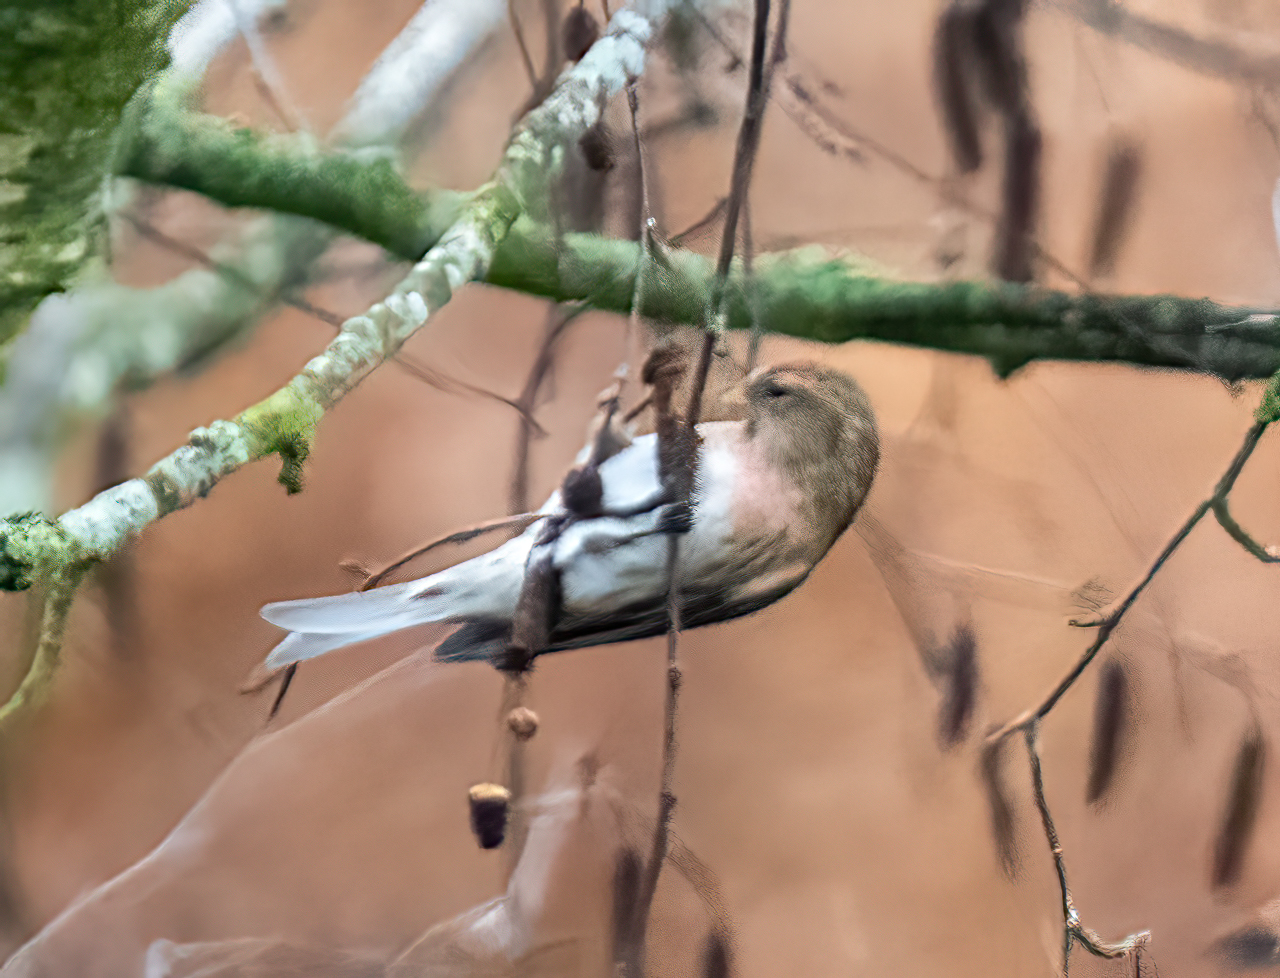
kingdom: Animalia
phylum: Chordata
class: Aves
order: Passeriformes
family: Fringillidae
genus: Acanthis
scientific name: Acanthis flammea
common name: Common redpoll
